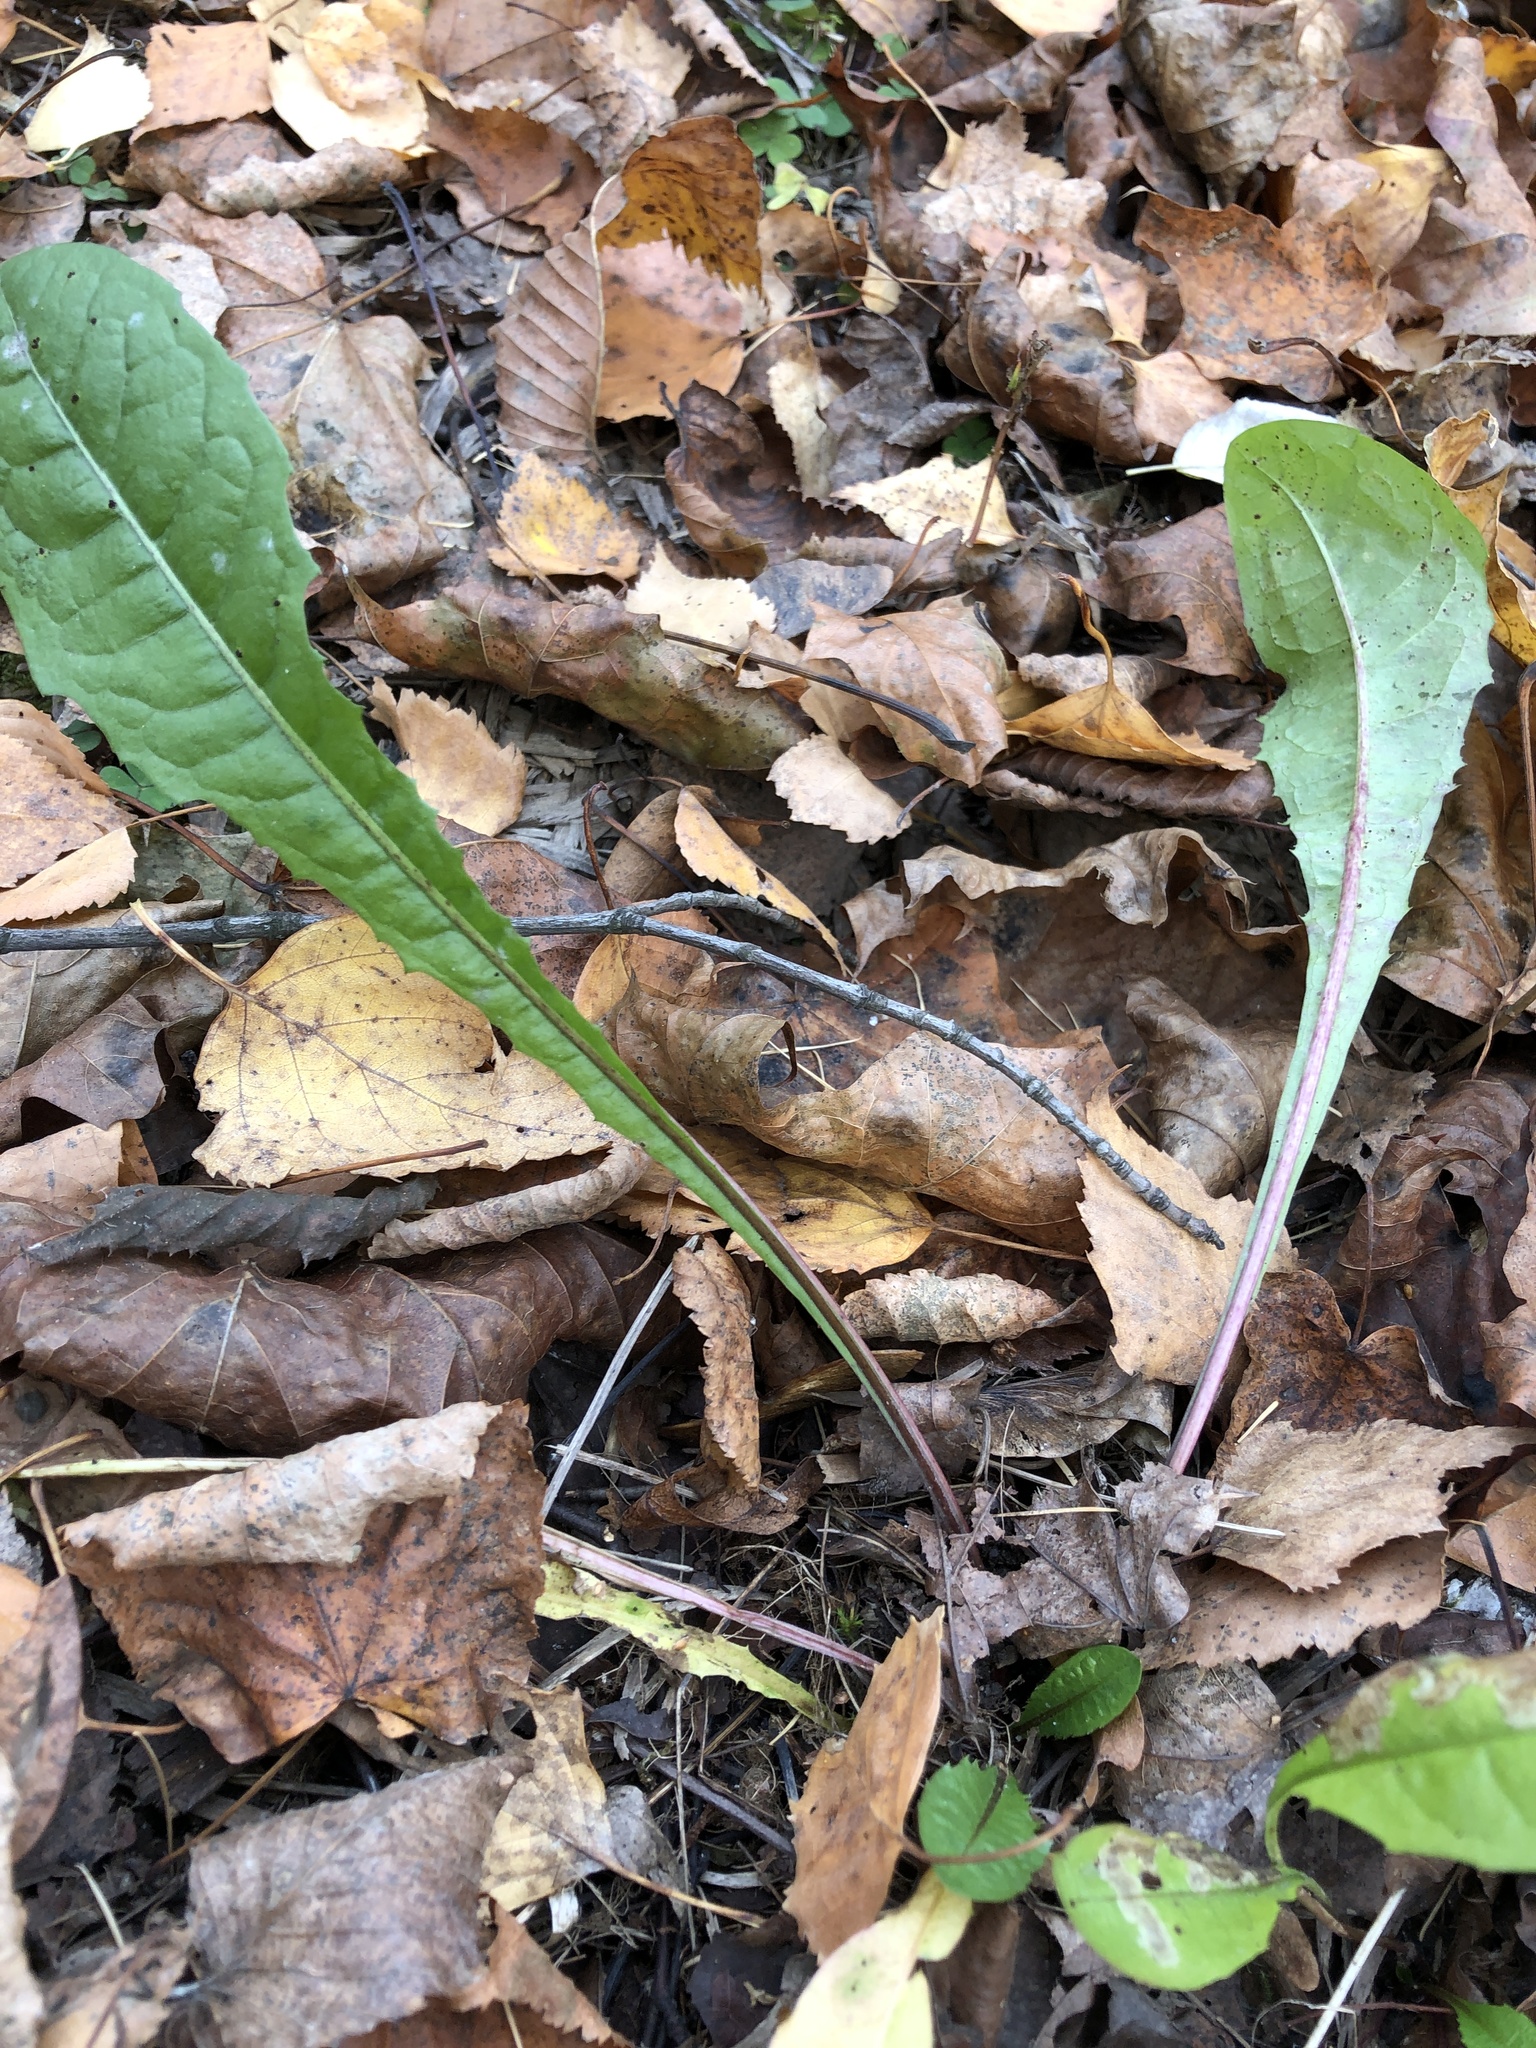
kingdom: Plantae
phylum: Tracheophyta
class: Magnoliopsida
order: Asterales
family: Asteraceae
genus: Taraxacum
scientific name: Taraxacum officinale
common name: Common dandelion
